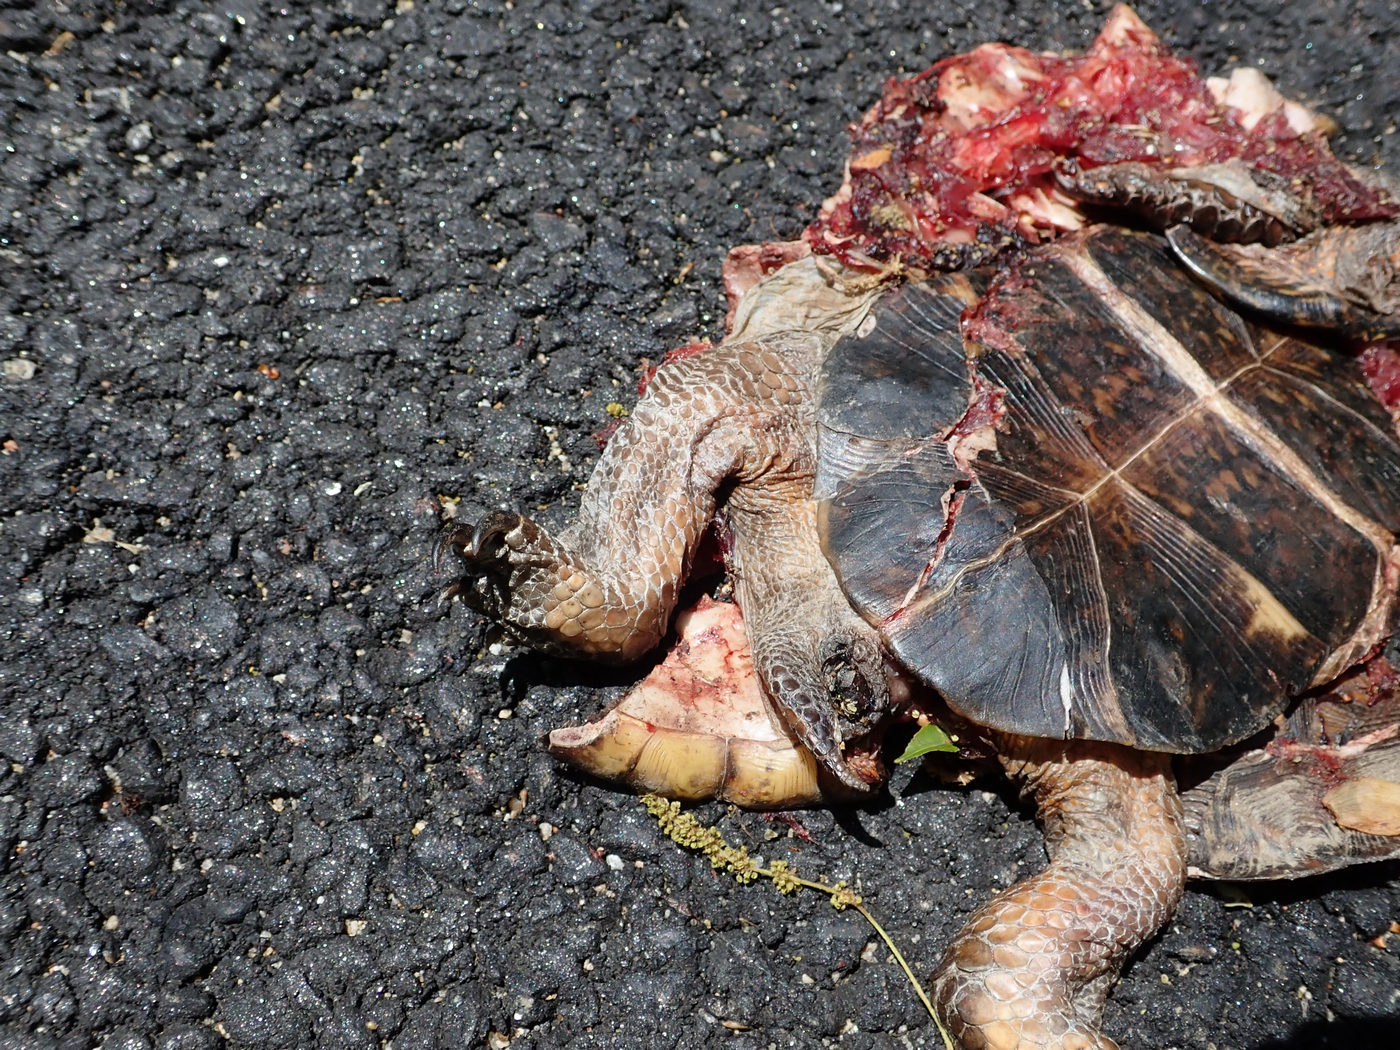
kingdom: Animalia
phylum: Chordata
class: Testudines
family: Emydidae
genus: Terrapene
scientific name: Terrapene carolina
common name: Common box turtle
